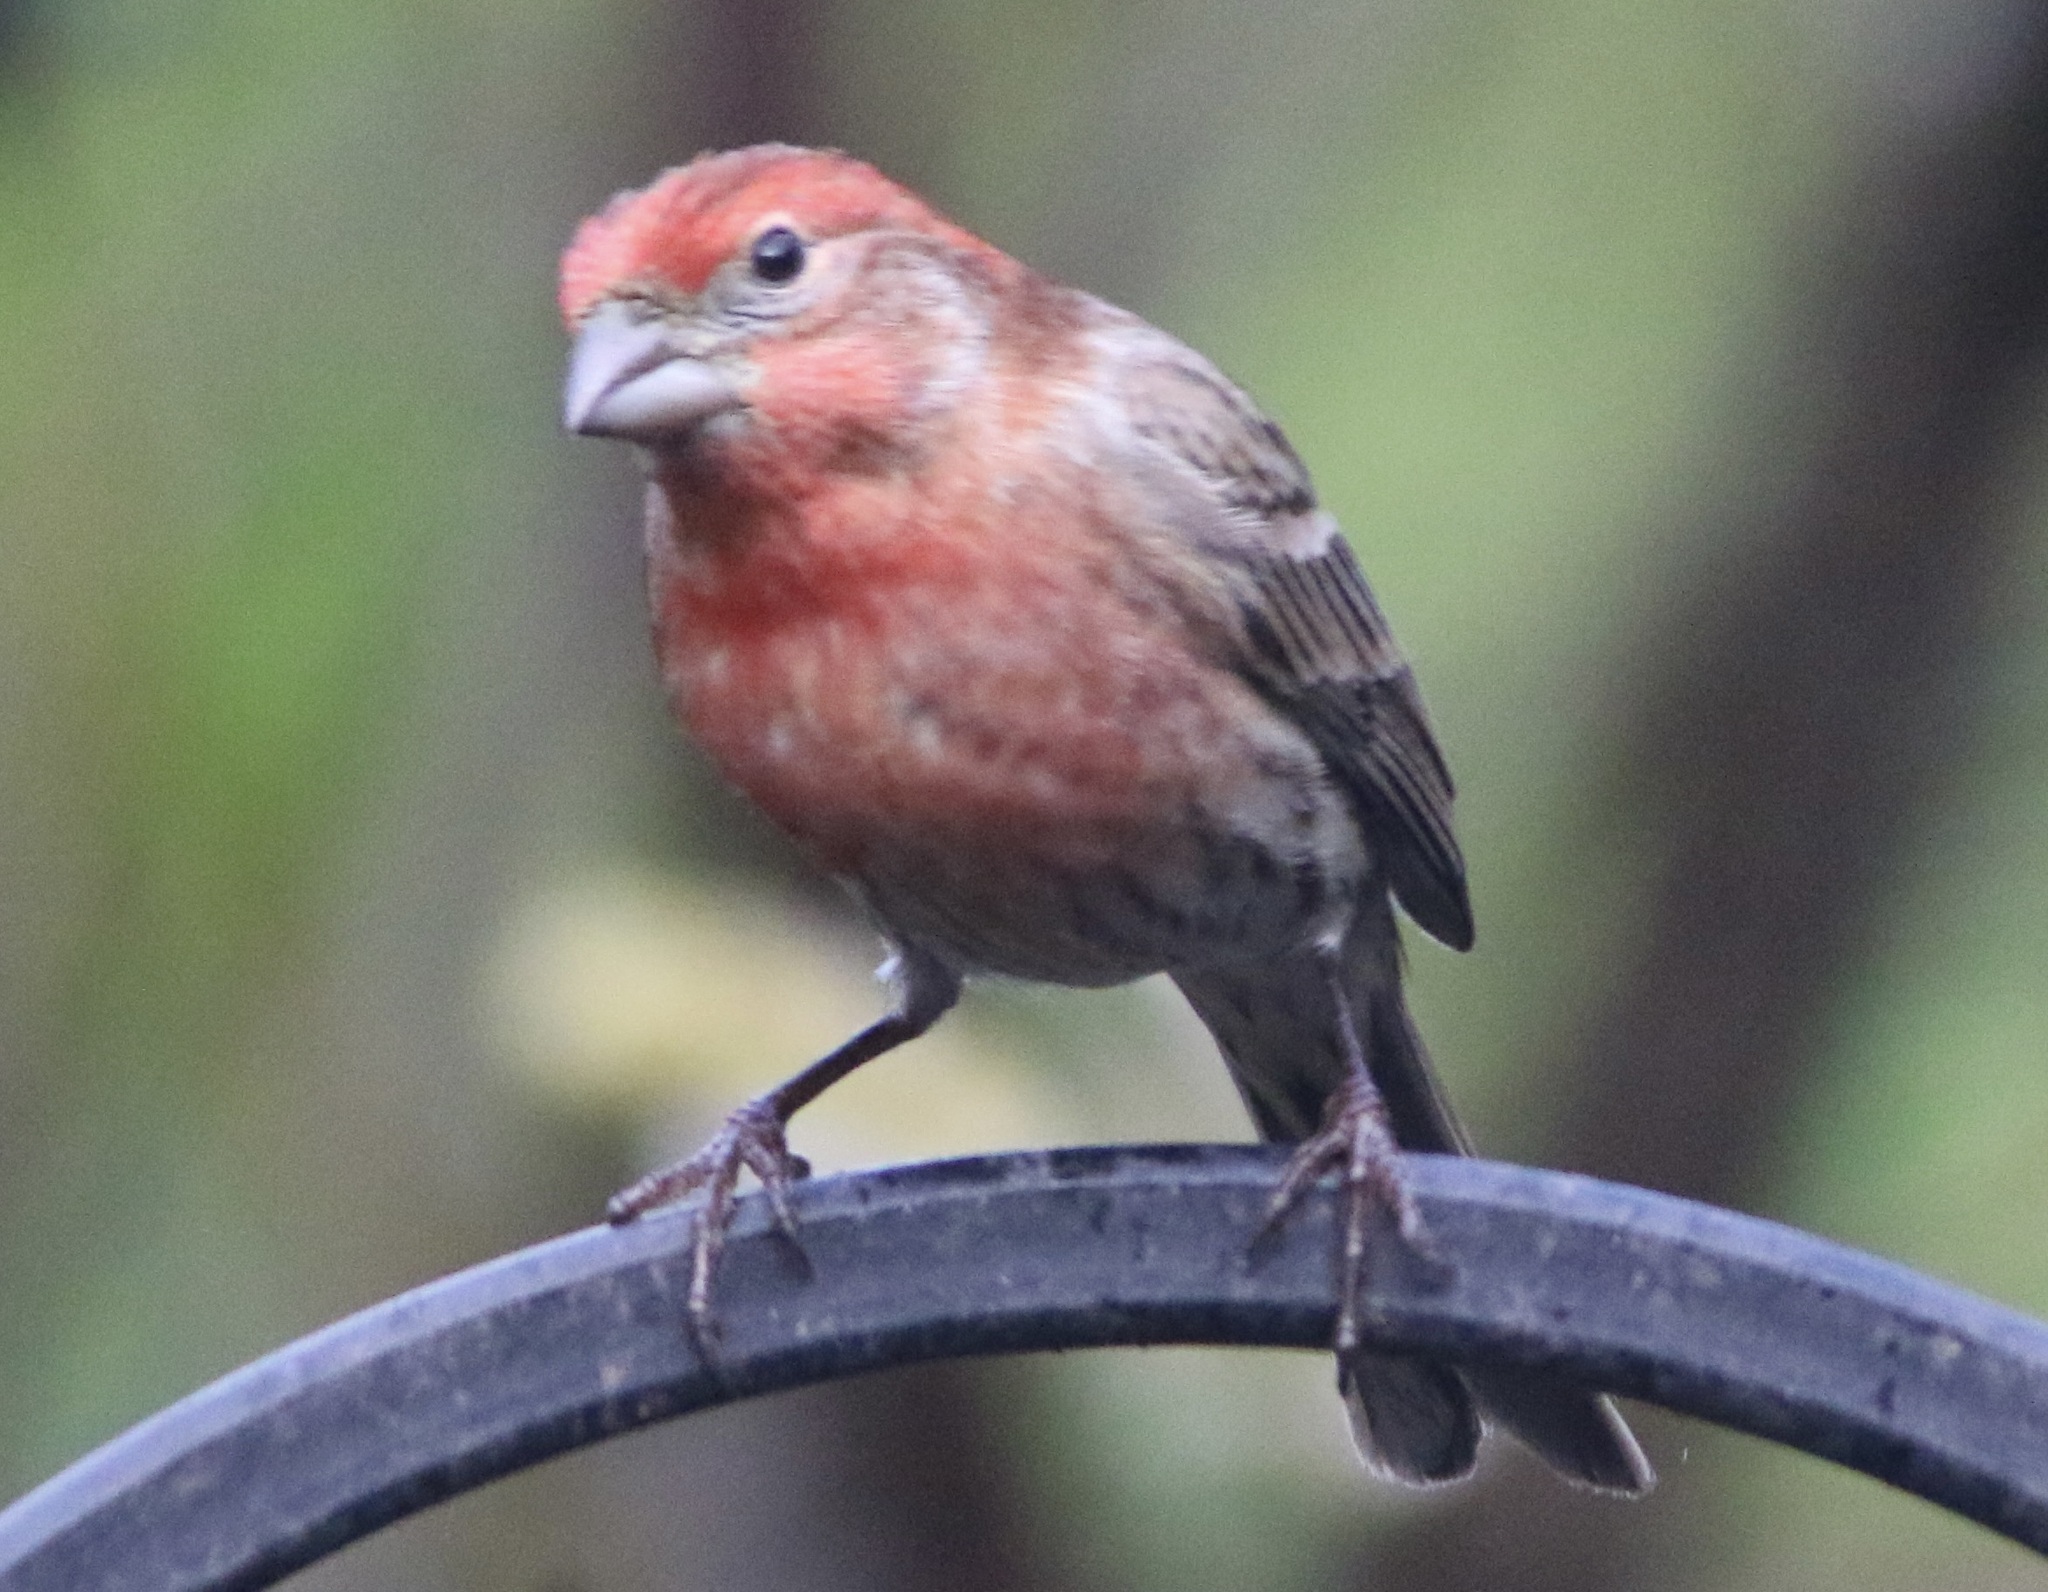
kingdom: Animalia
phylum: Chordata
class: Aves
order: Passeriformes
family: Fringillidae
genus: Haemorhous
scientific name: Haemorhous mexicanus
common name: House finch
